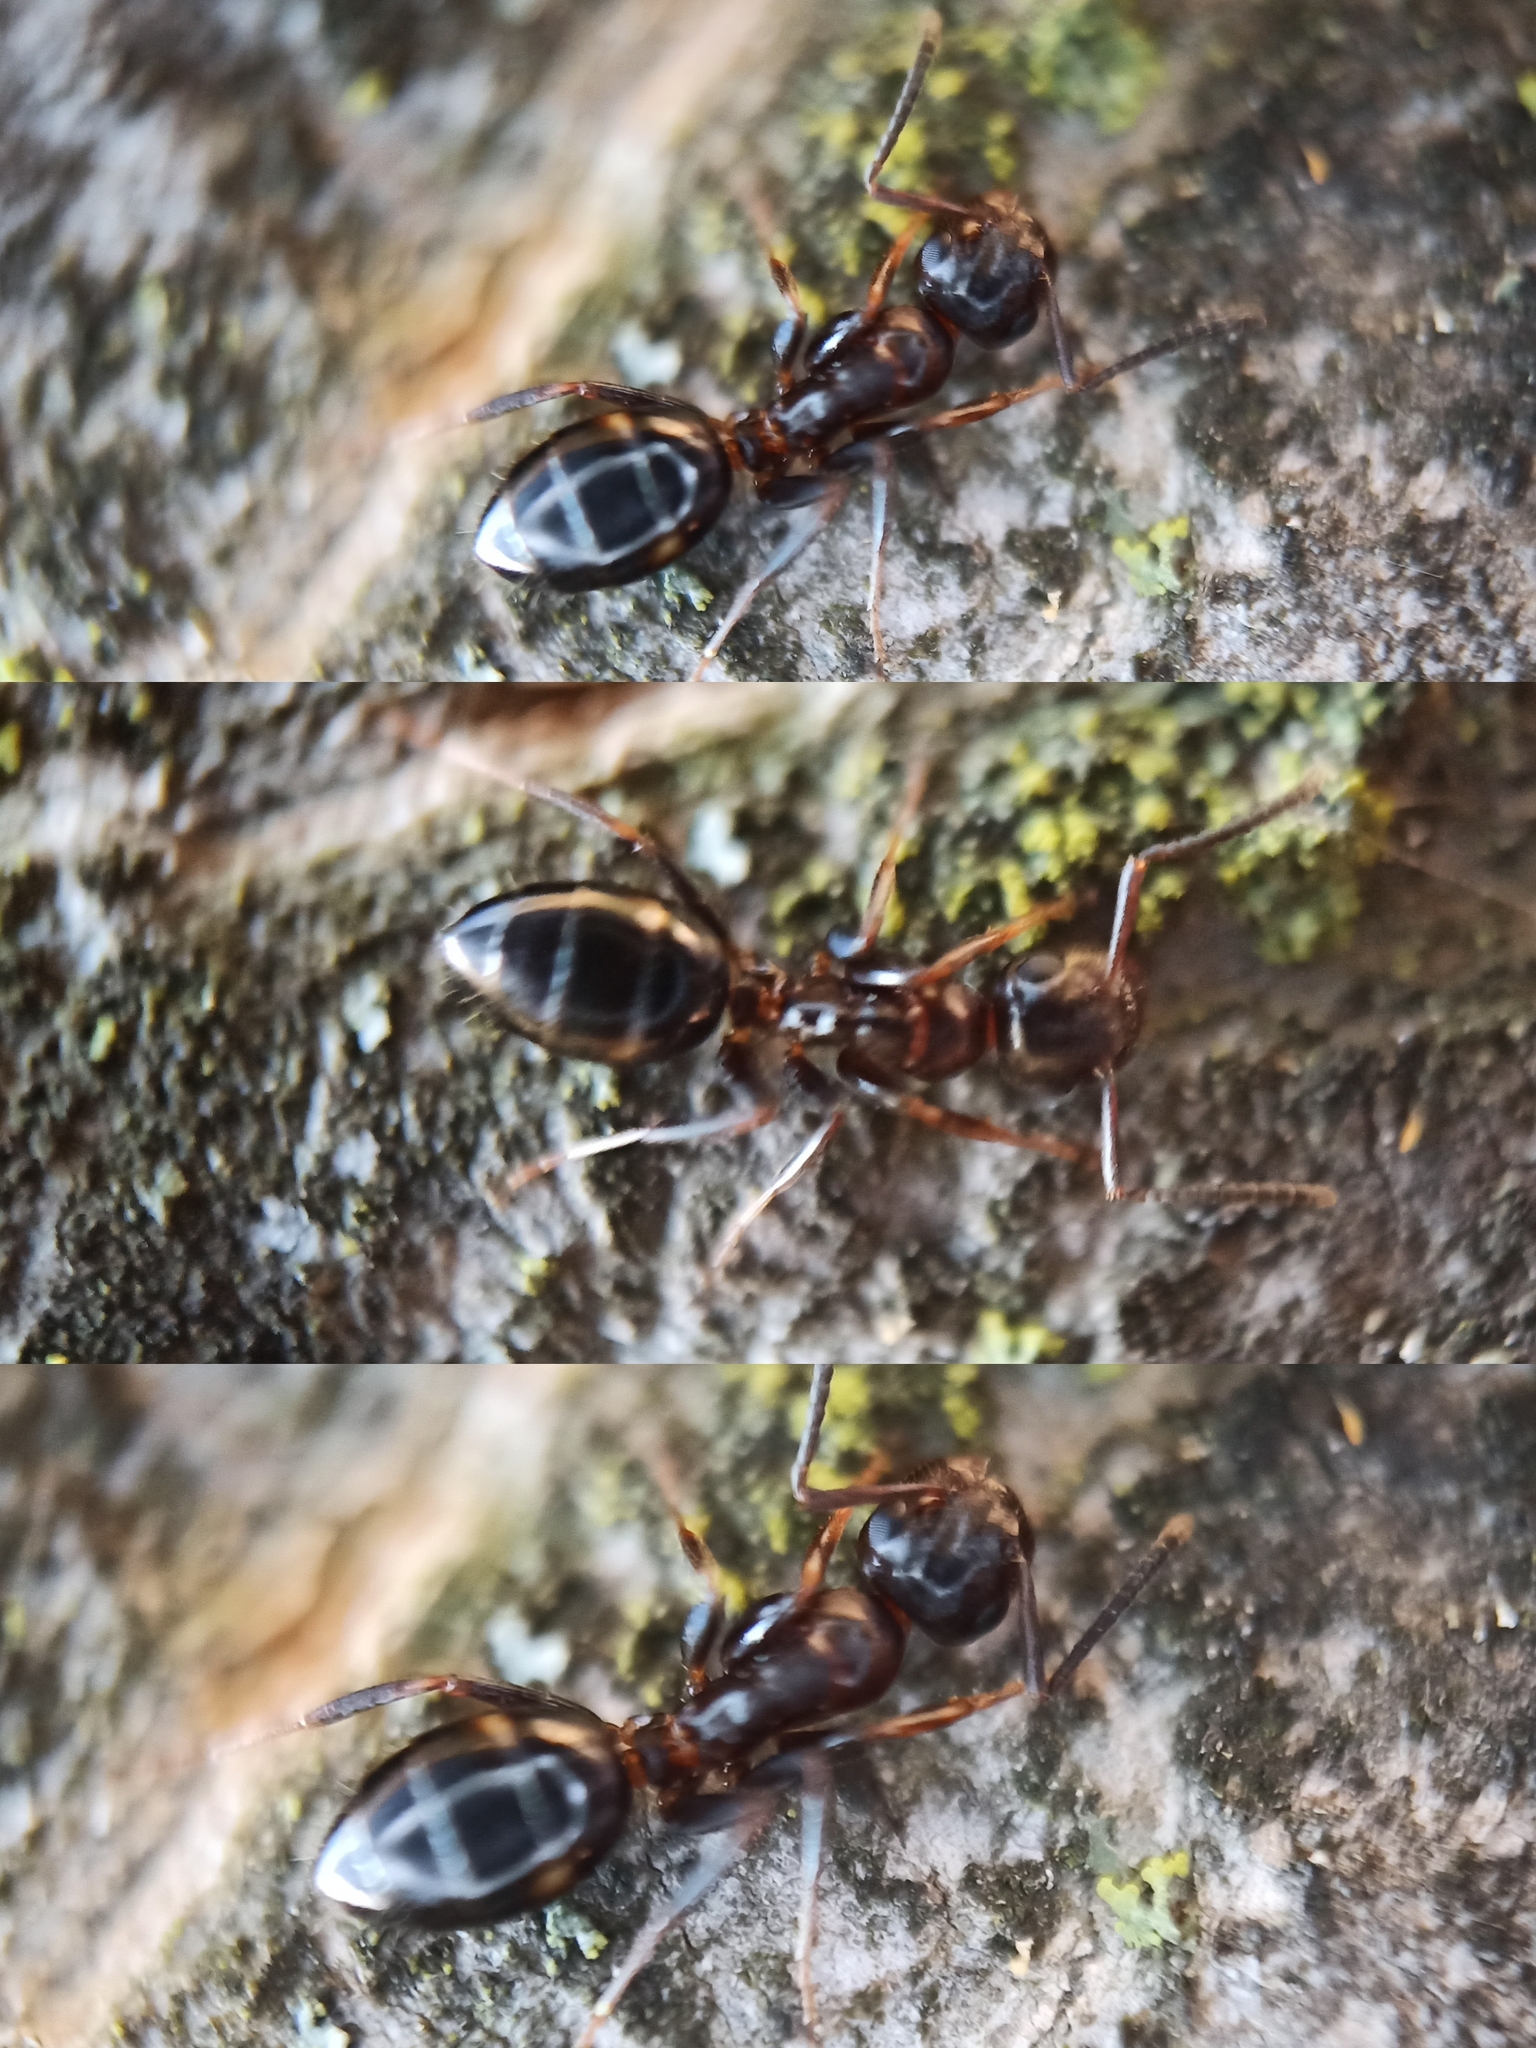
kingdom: Animalia
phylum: Arthropoda
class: Insecta
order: Hymenoptera
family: Formicidae
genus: Camponotus
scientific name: Camponotus truncatus
